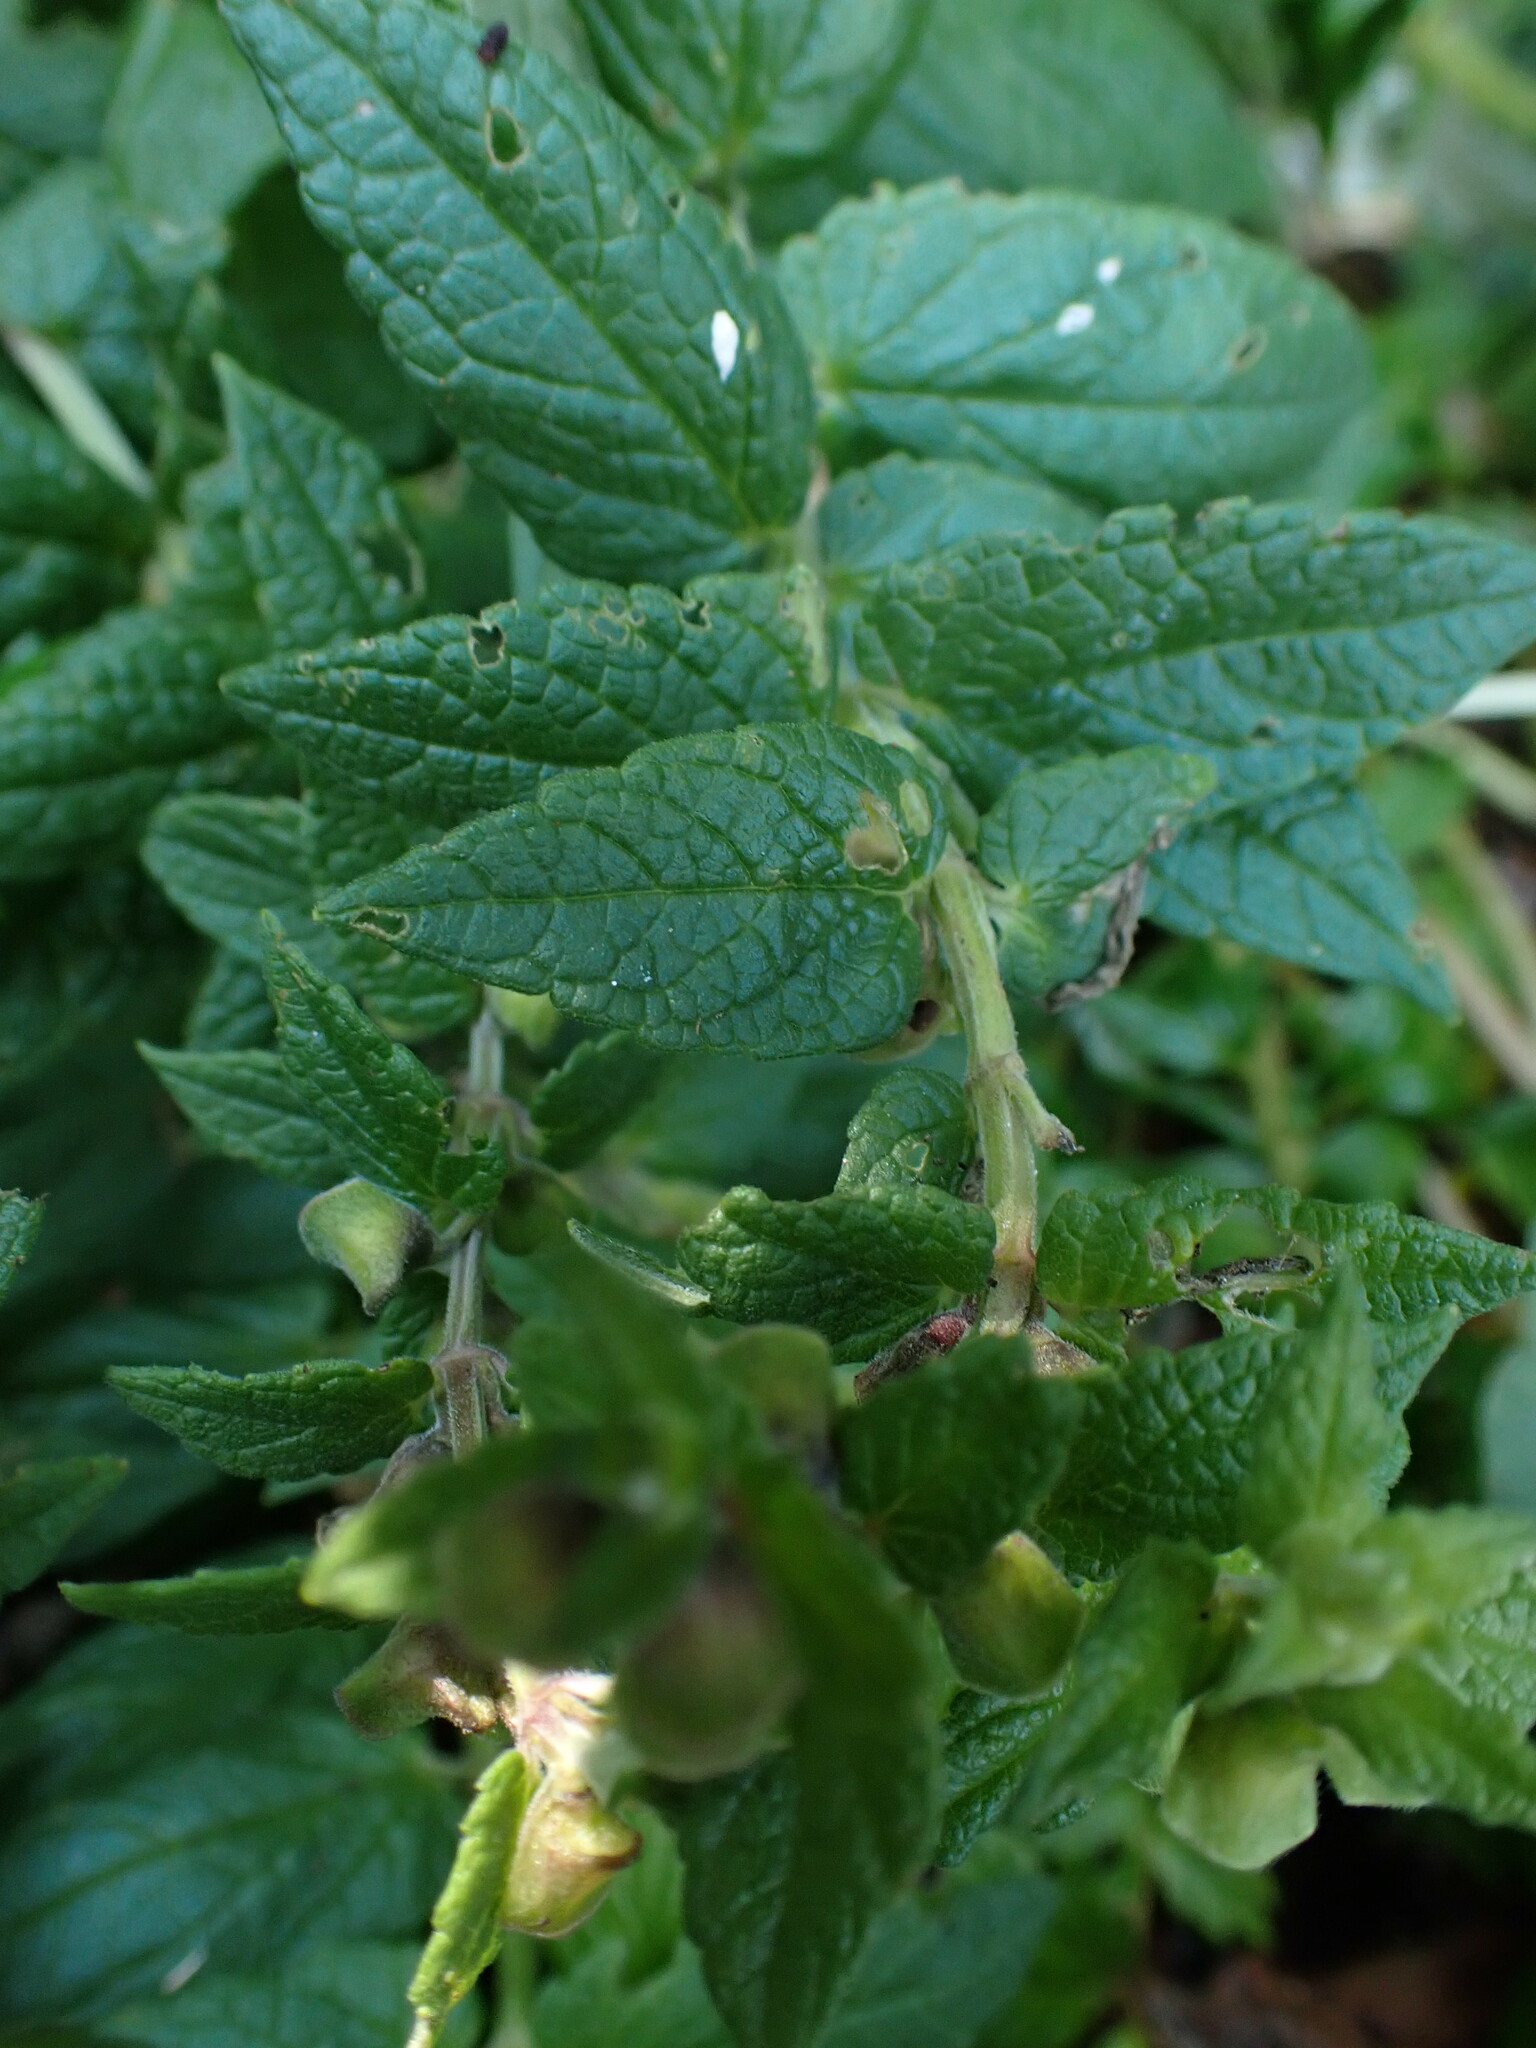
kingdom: Plantae
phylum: Tracheophyta
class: Magnoliopsida
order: Rosales
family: Rosaceae
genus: Argentina
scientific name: Argentina anserina
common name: Common silverweed
